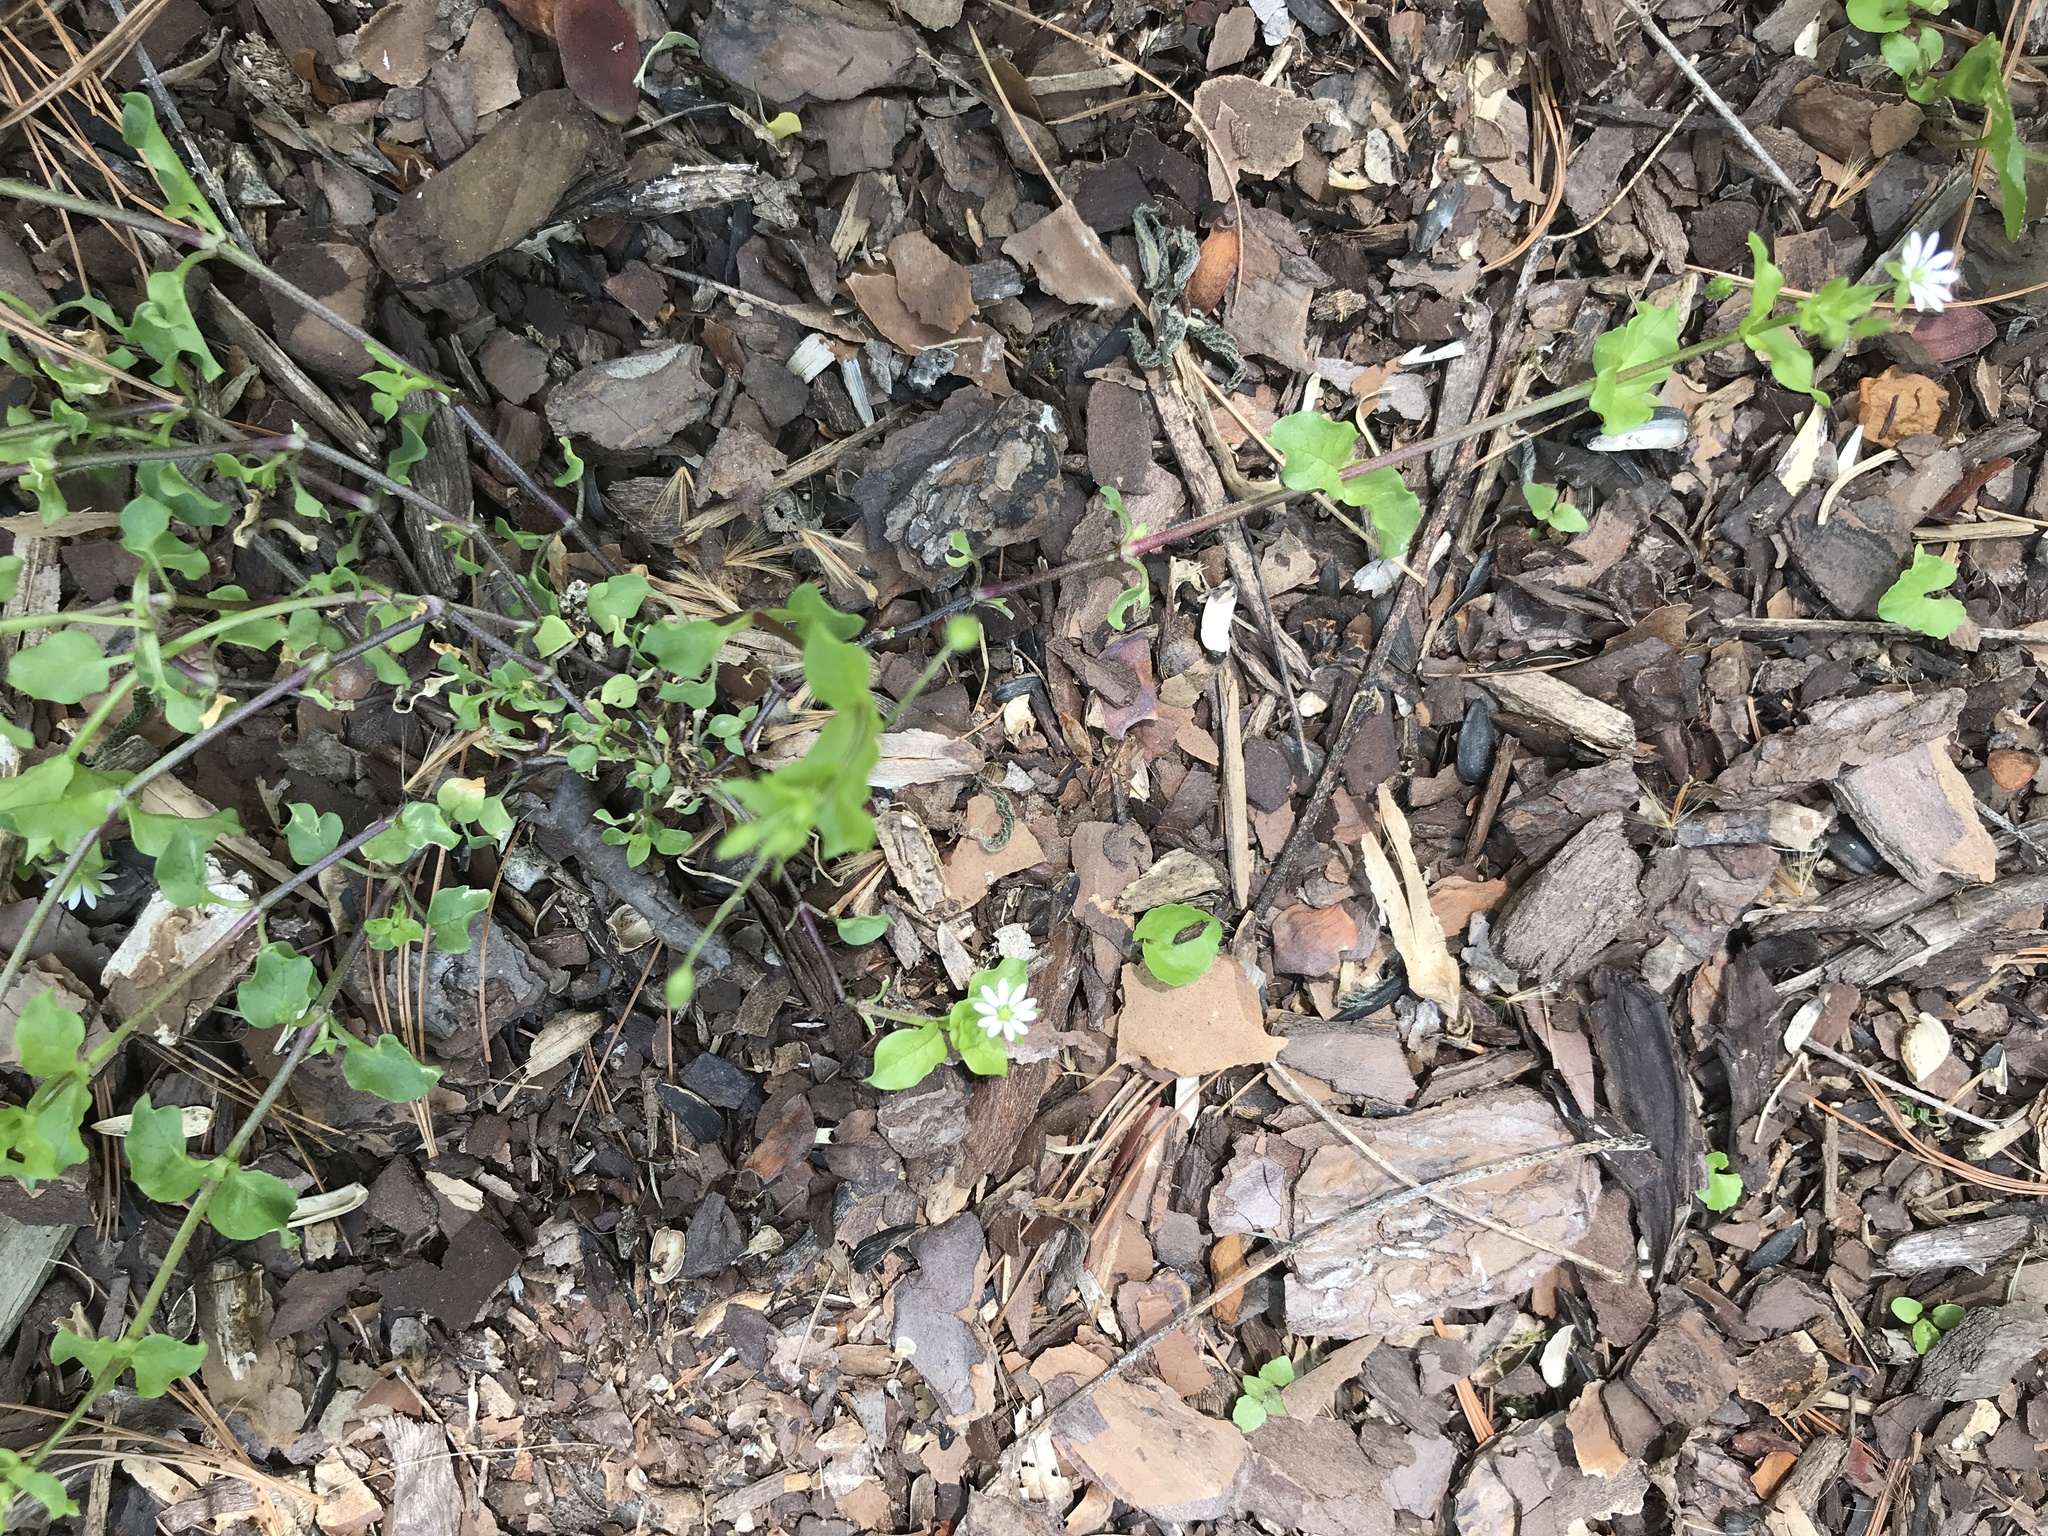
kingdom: Plantae
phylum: Tracheophyta
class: Magnoliopsida
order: Caryophyllales
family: Caryophyllaceae
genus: Stellaria
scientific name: Stellaria media
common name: Common chickweed
